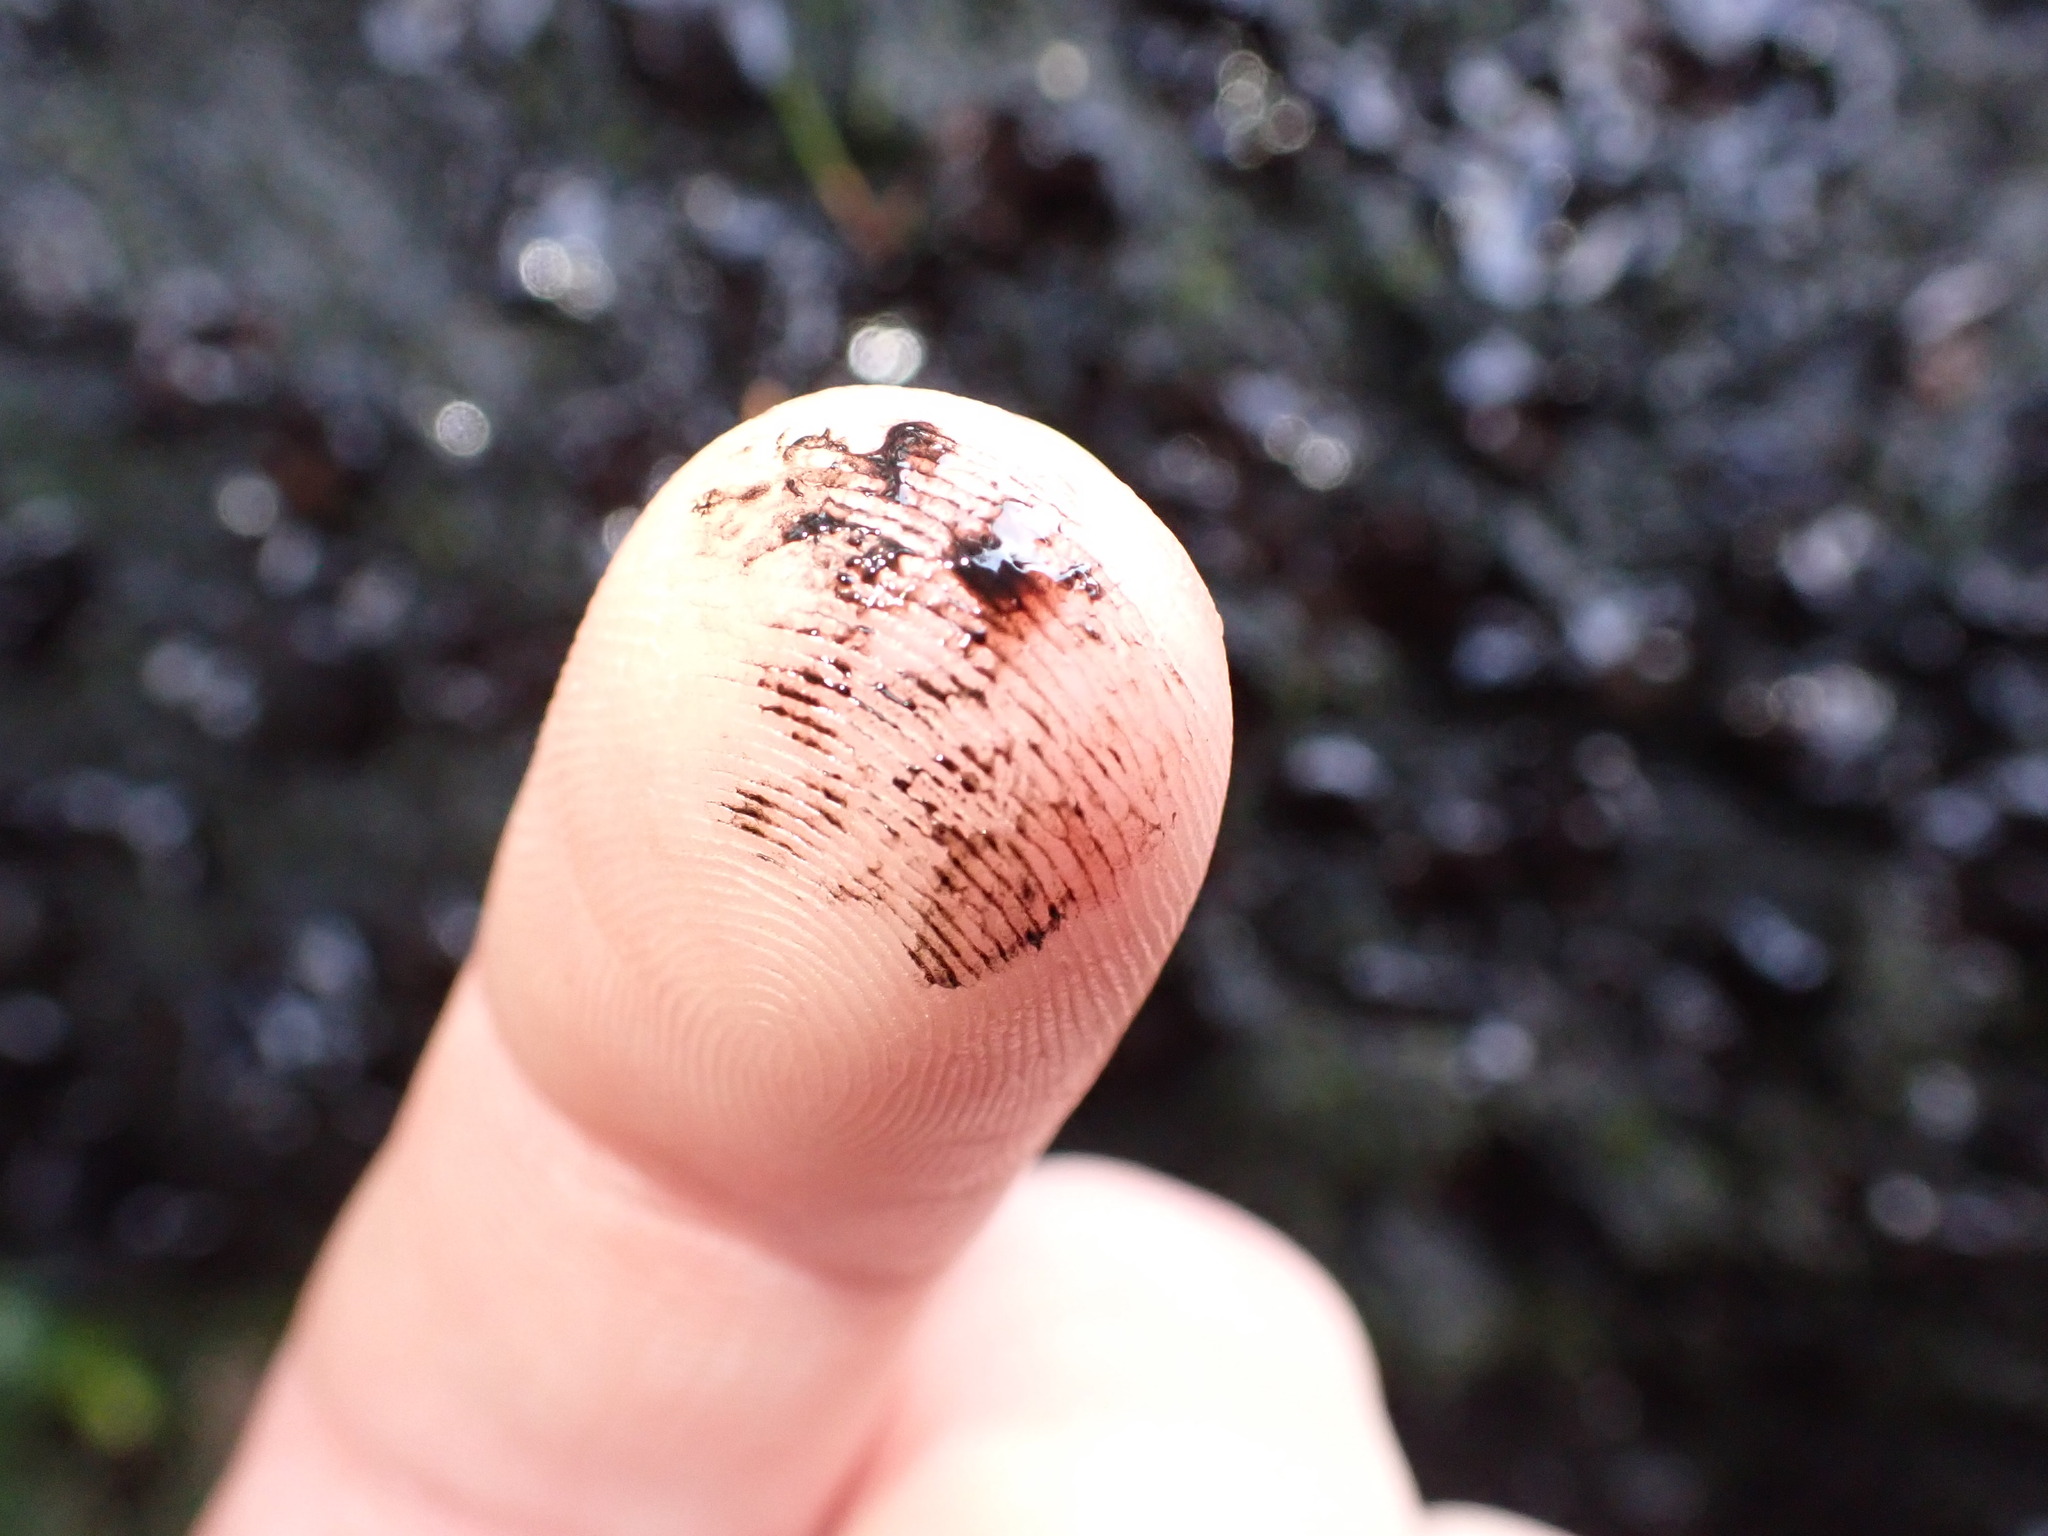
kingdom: Fungi
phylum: Ascomycota
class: Leotiomycetes
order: Phacidiales
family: Phacidiaceae
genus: Bulgaria
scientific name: Bulgaria inquinans
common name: Black bulgar
